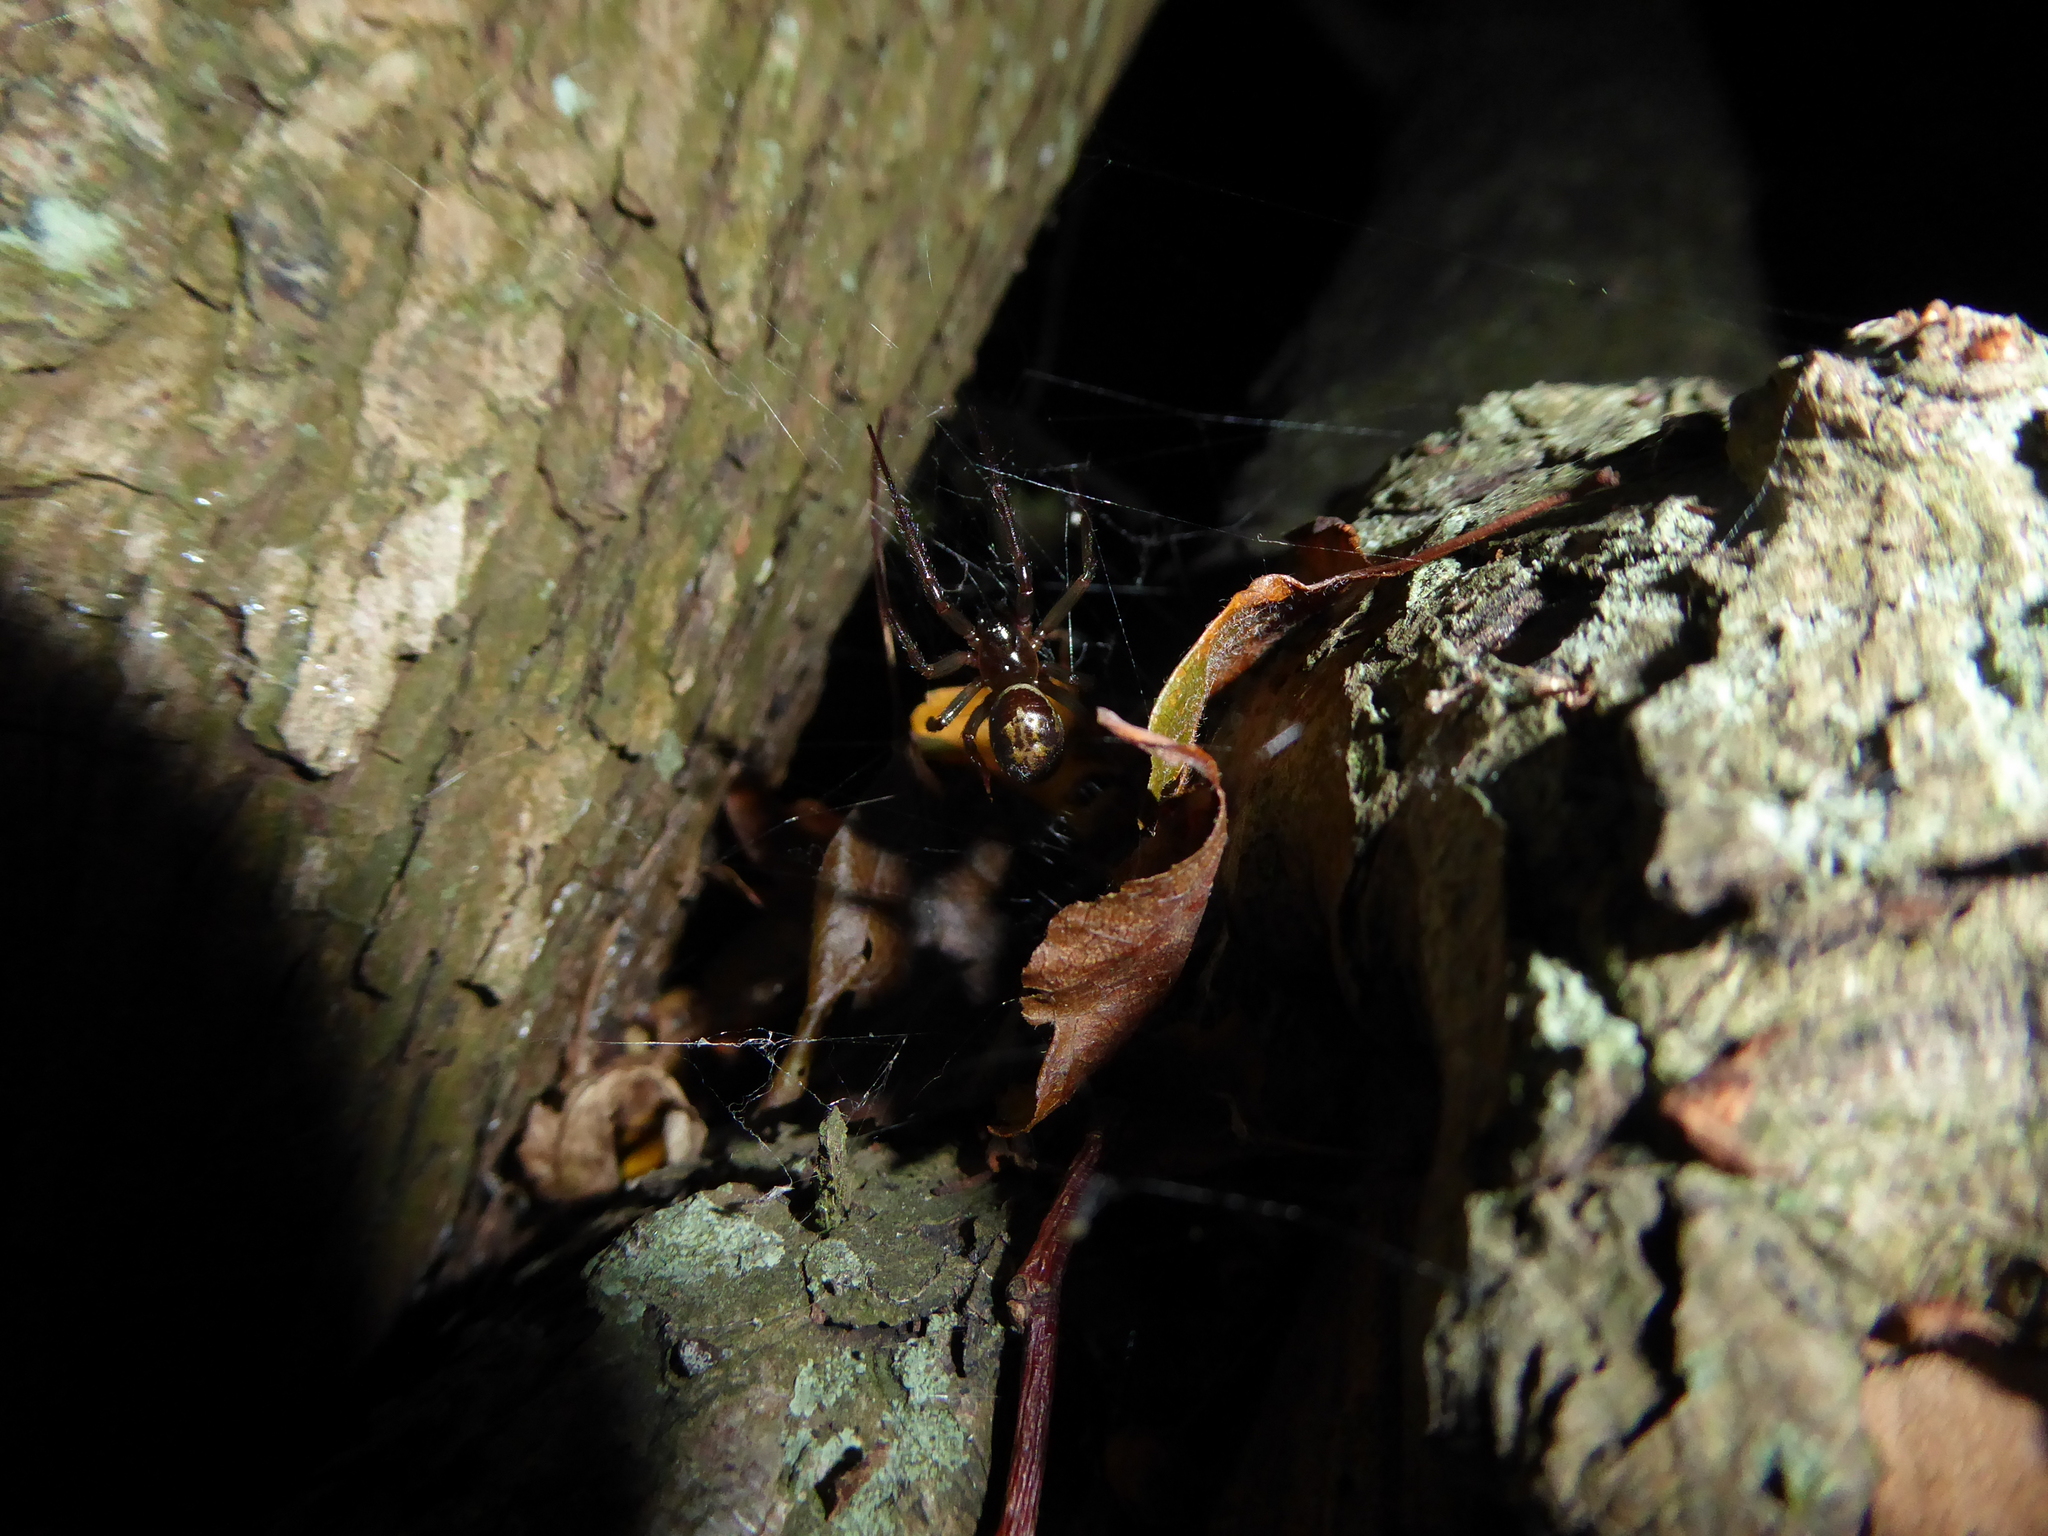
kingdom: Animalia
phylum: Arthropoda
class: Arachnida
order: Araneae
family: Theridiidae
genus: Steatoda
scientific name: Steatoda nobilis
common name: Cobweb weaver
